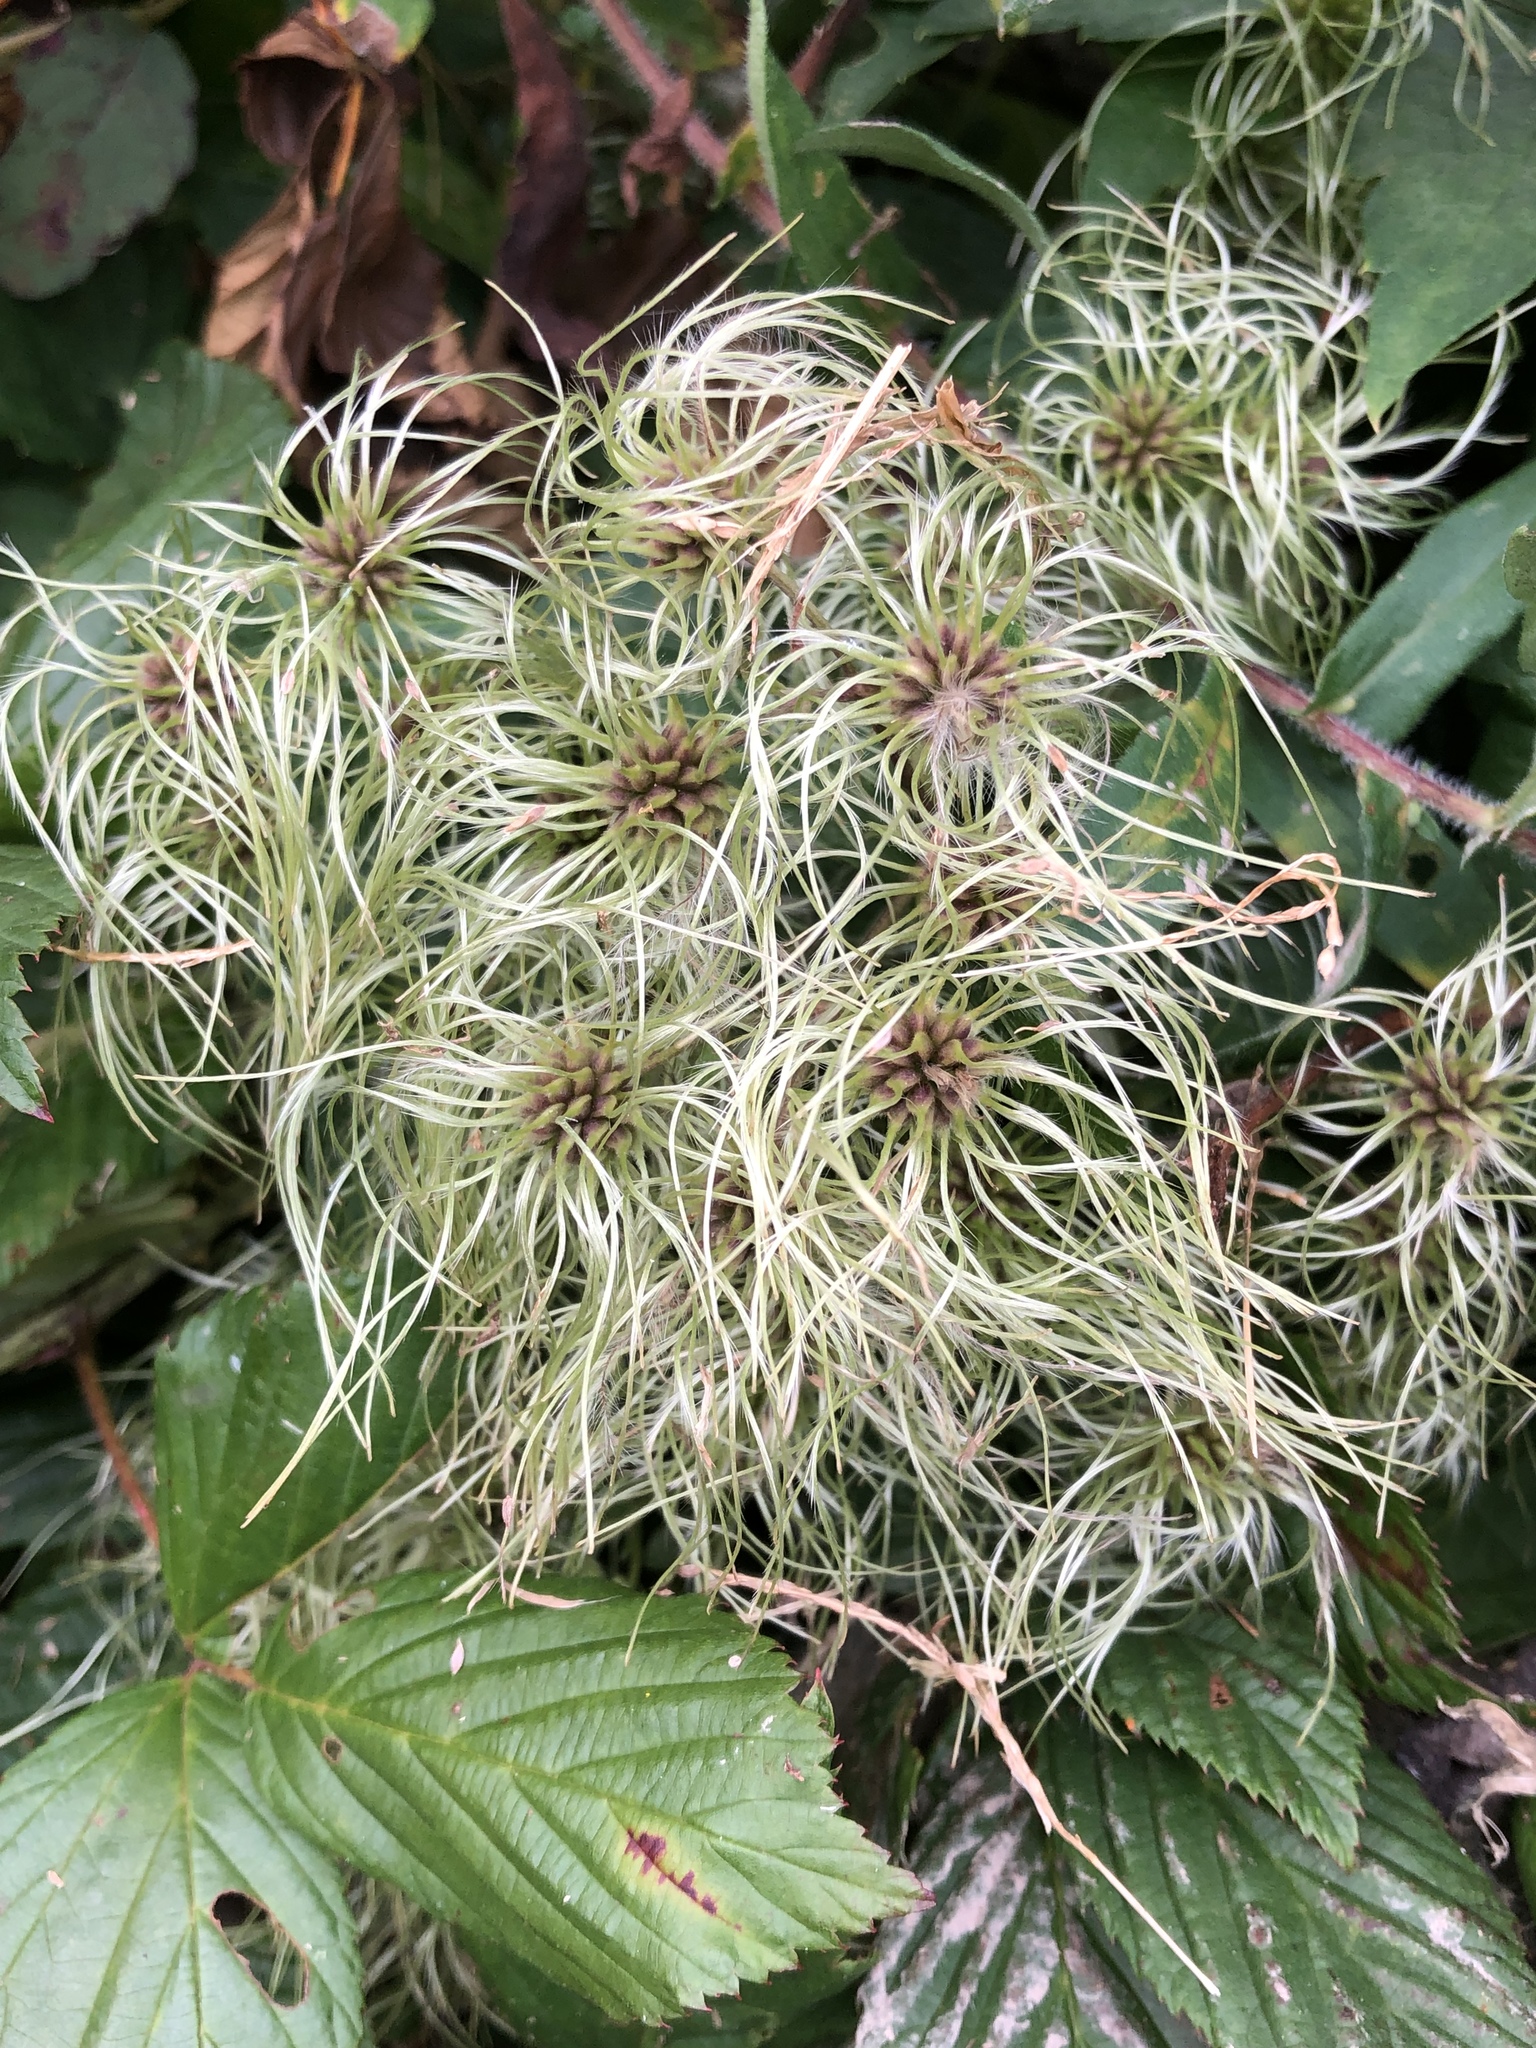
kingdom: Plantae
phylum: Tracheophyta
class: Magnoliopsida
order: Ranunculales
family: Ranunculaceae
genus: Clematis
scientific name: Clematis virginiana
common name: Virgin's-bower
